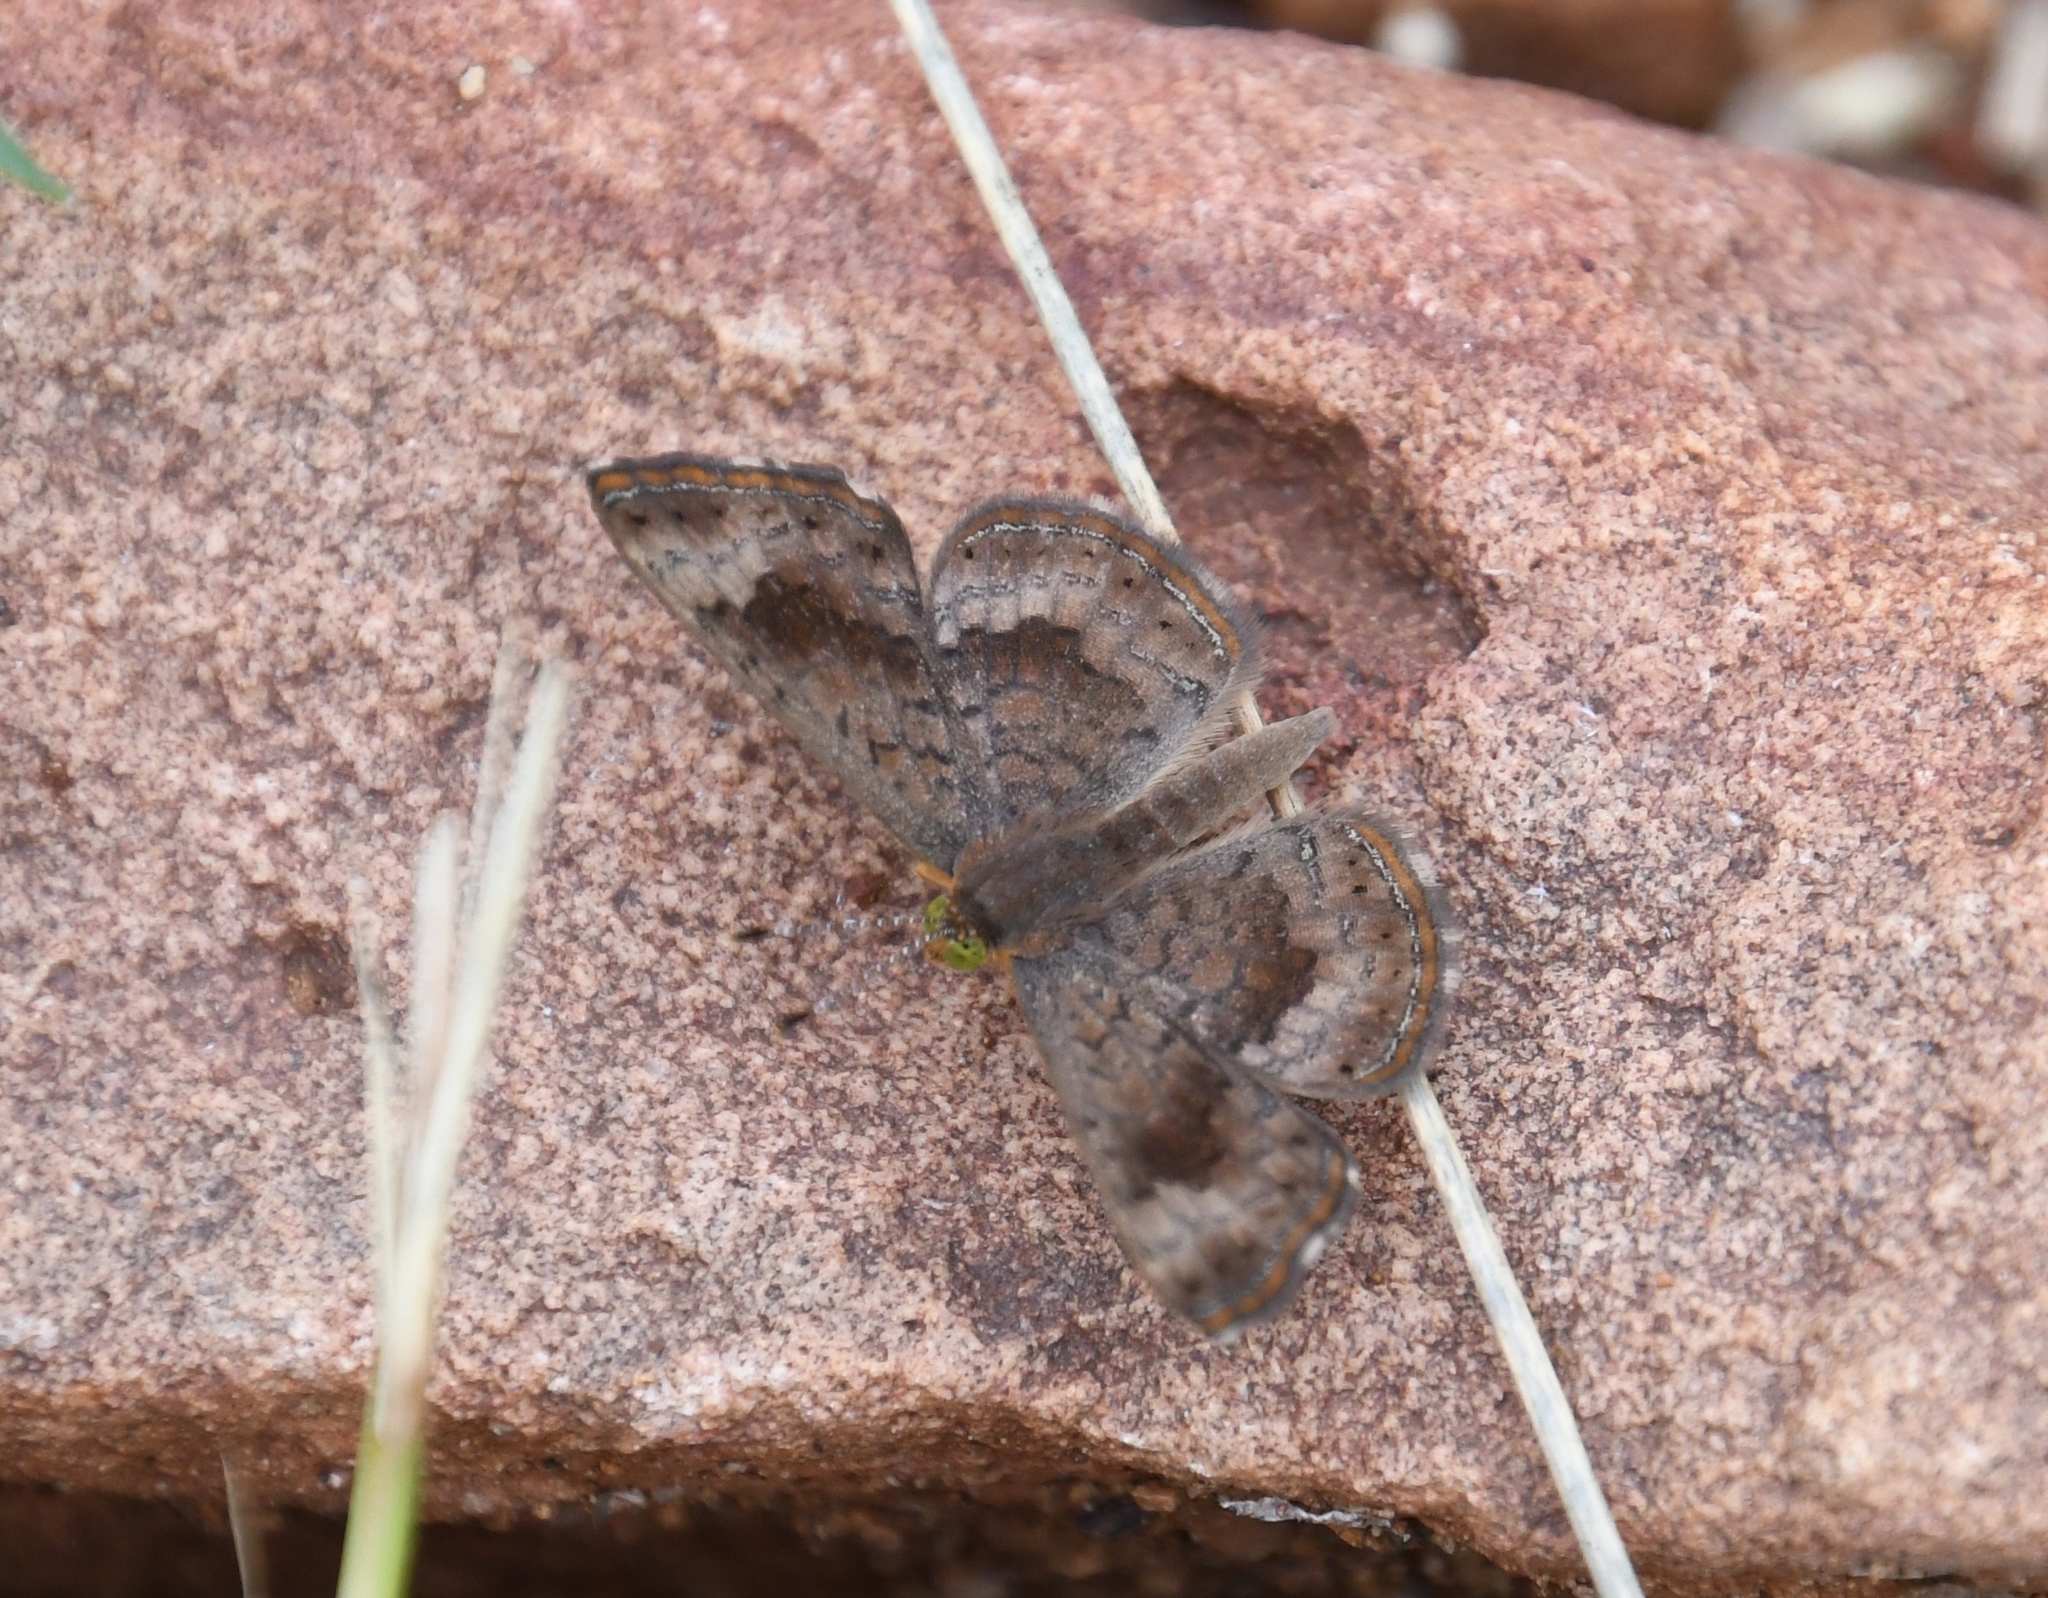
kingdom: Animalia
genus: Calephelis
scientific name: Calephelis nemesis
